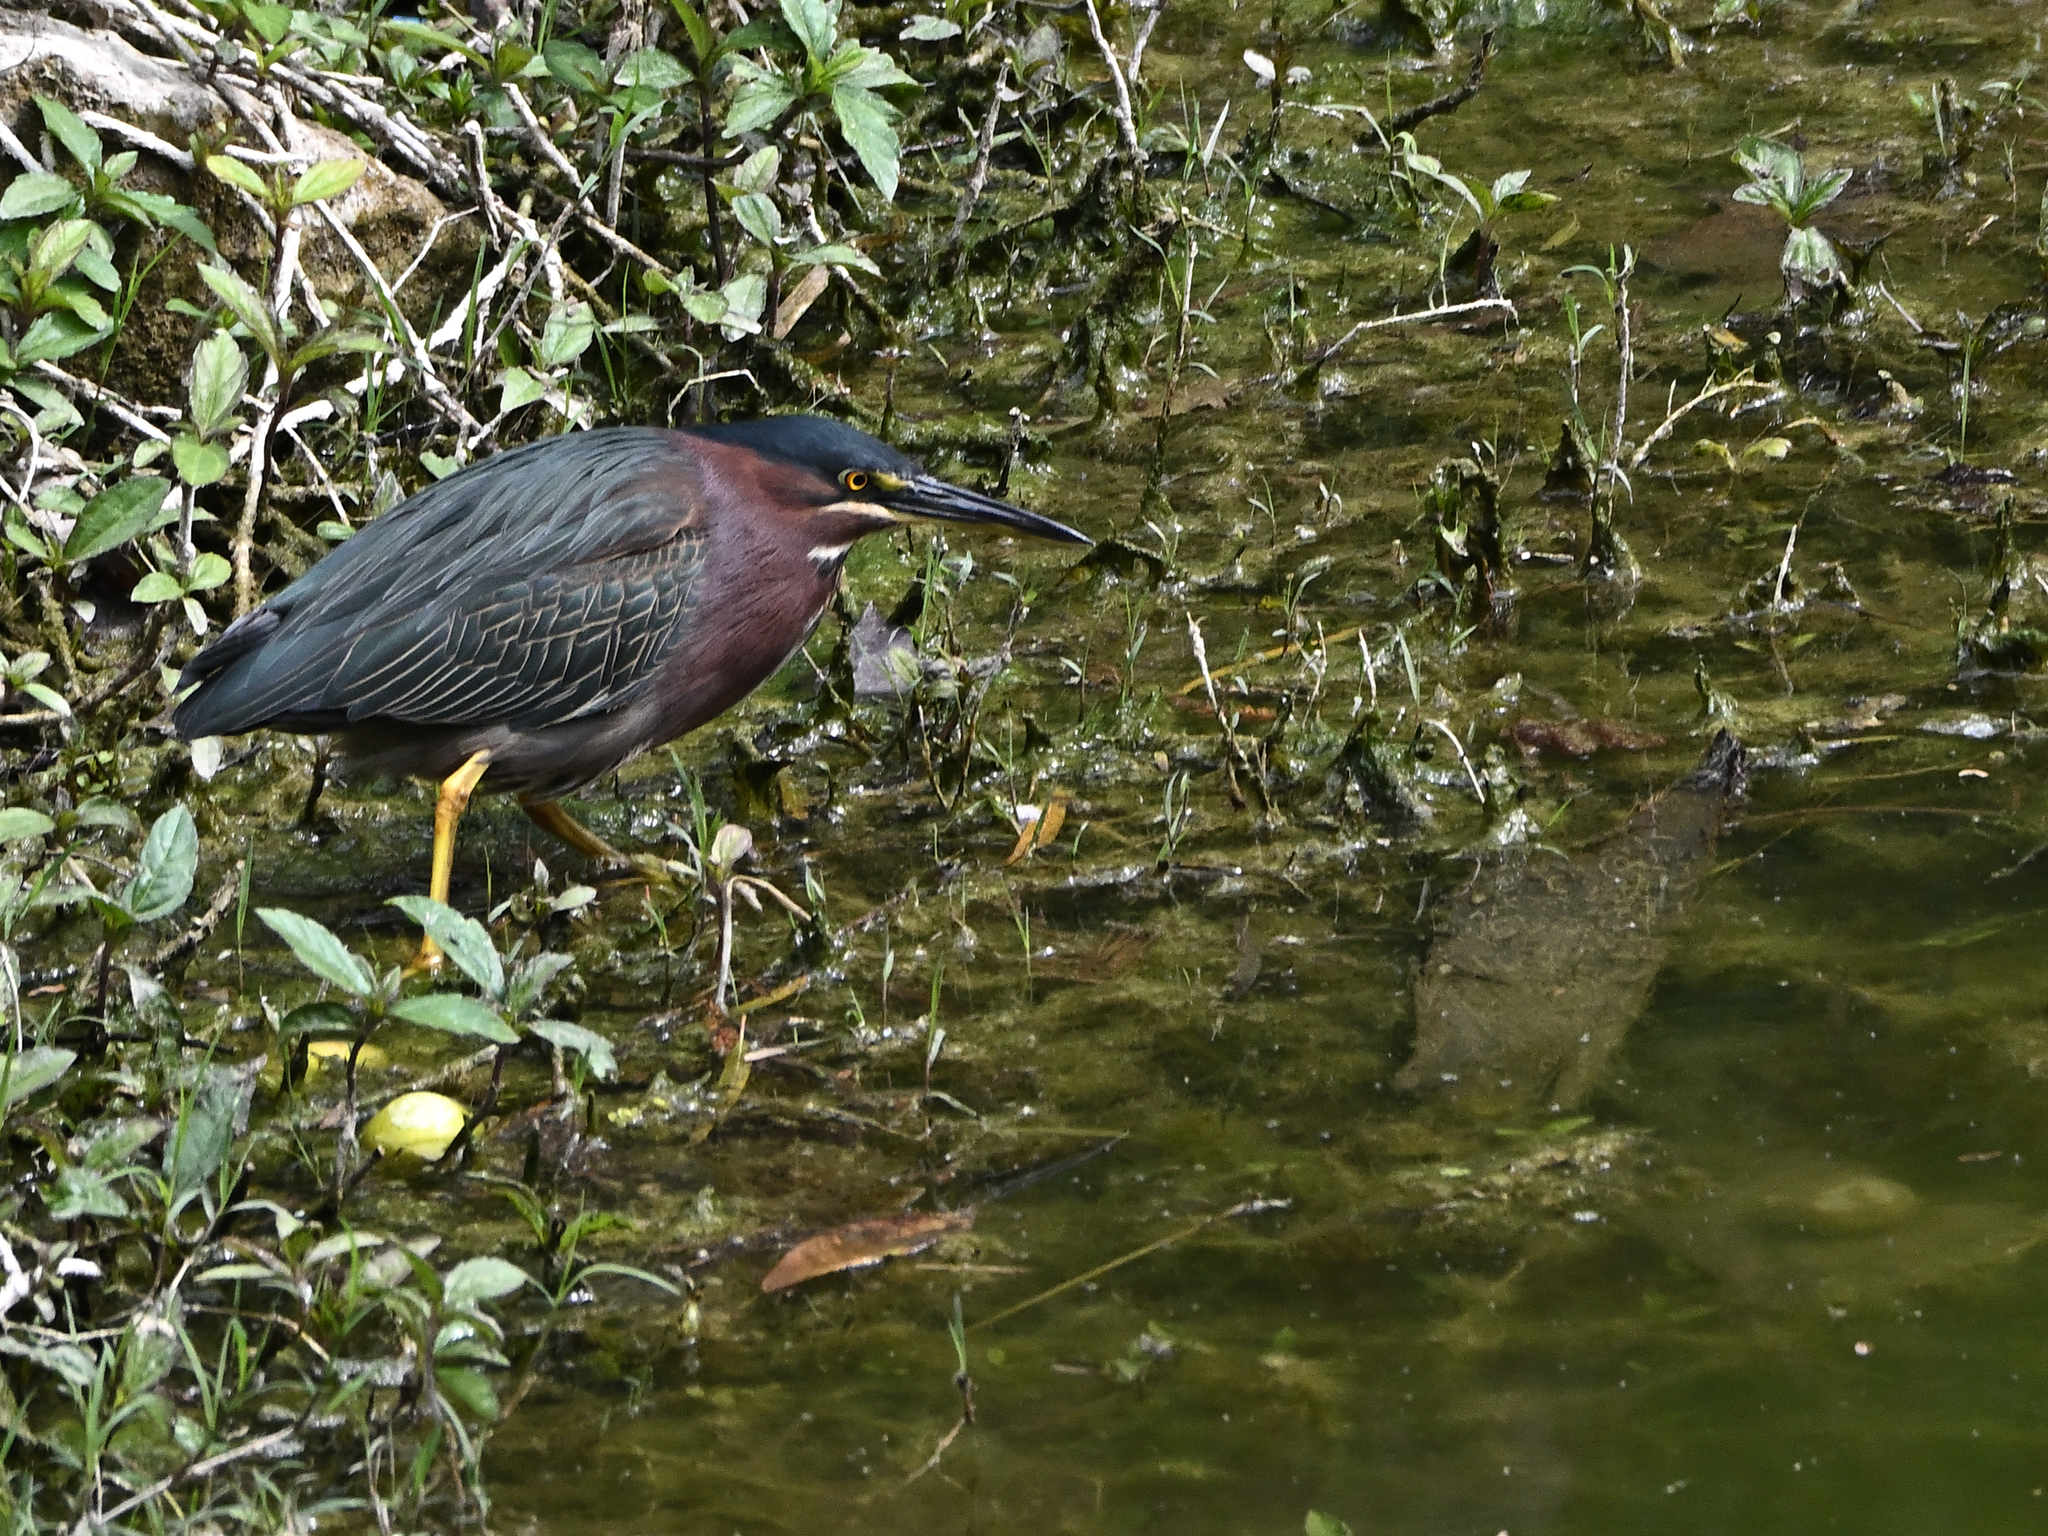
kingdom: Animalia
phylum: Chordata
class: Aves
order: Pelecaniformes
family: Ardeidae
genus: Butorides
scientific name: Butorides virescens
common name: Green heron
